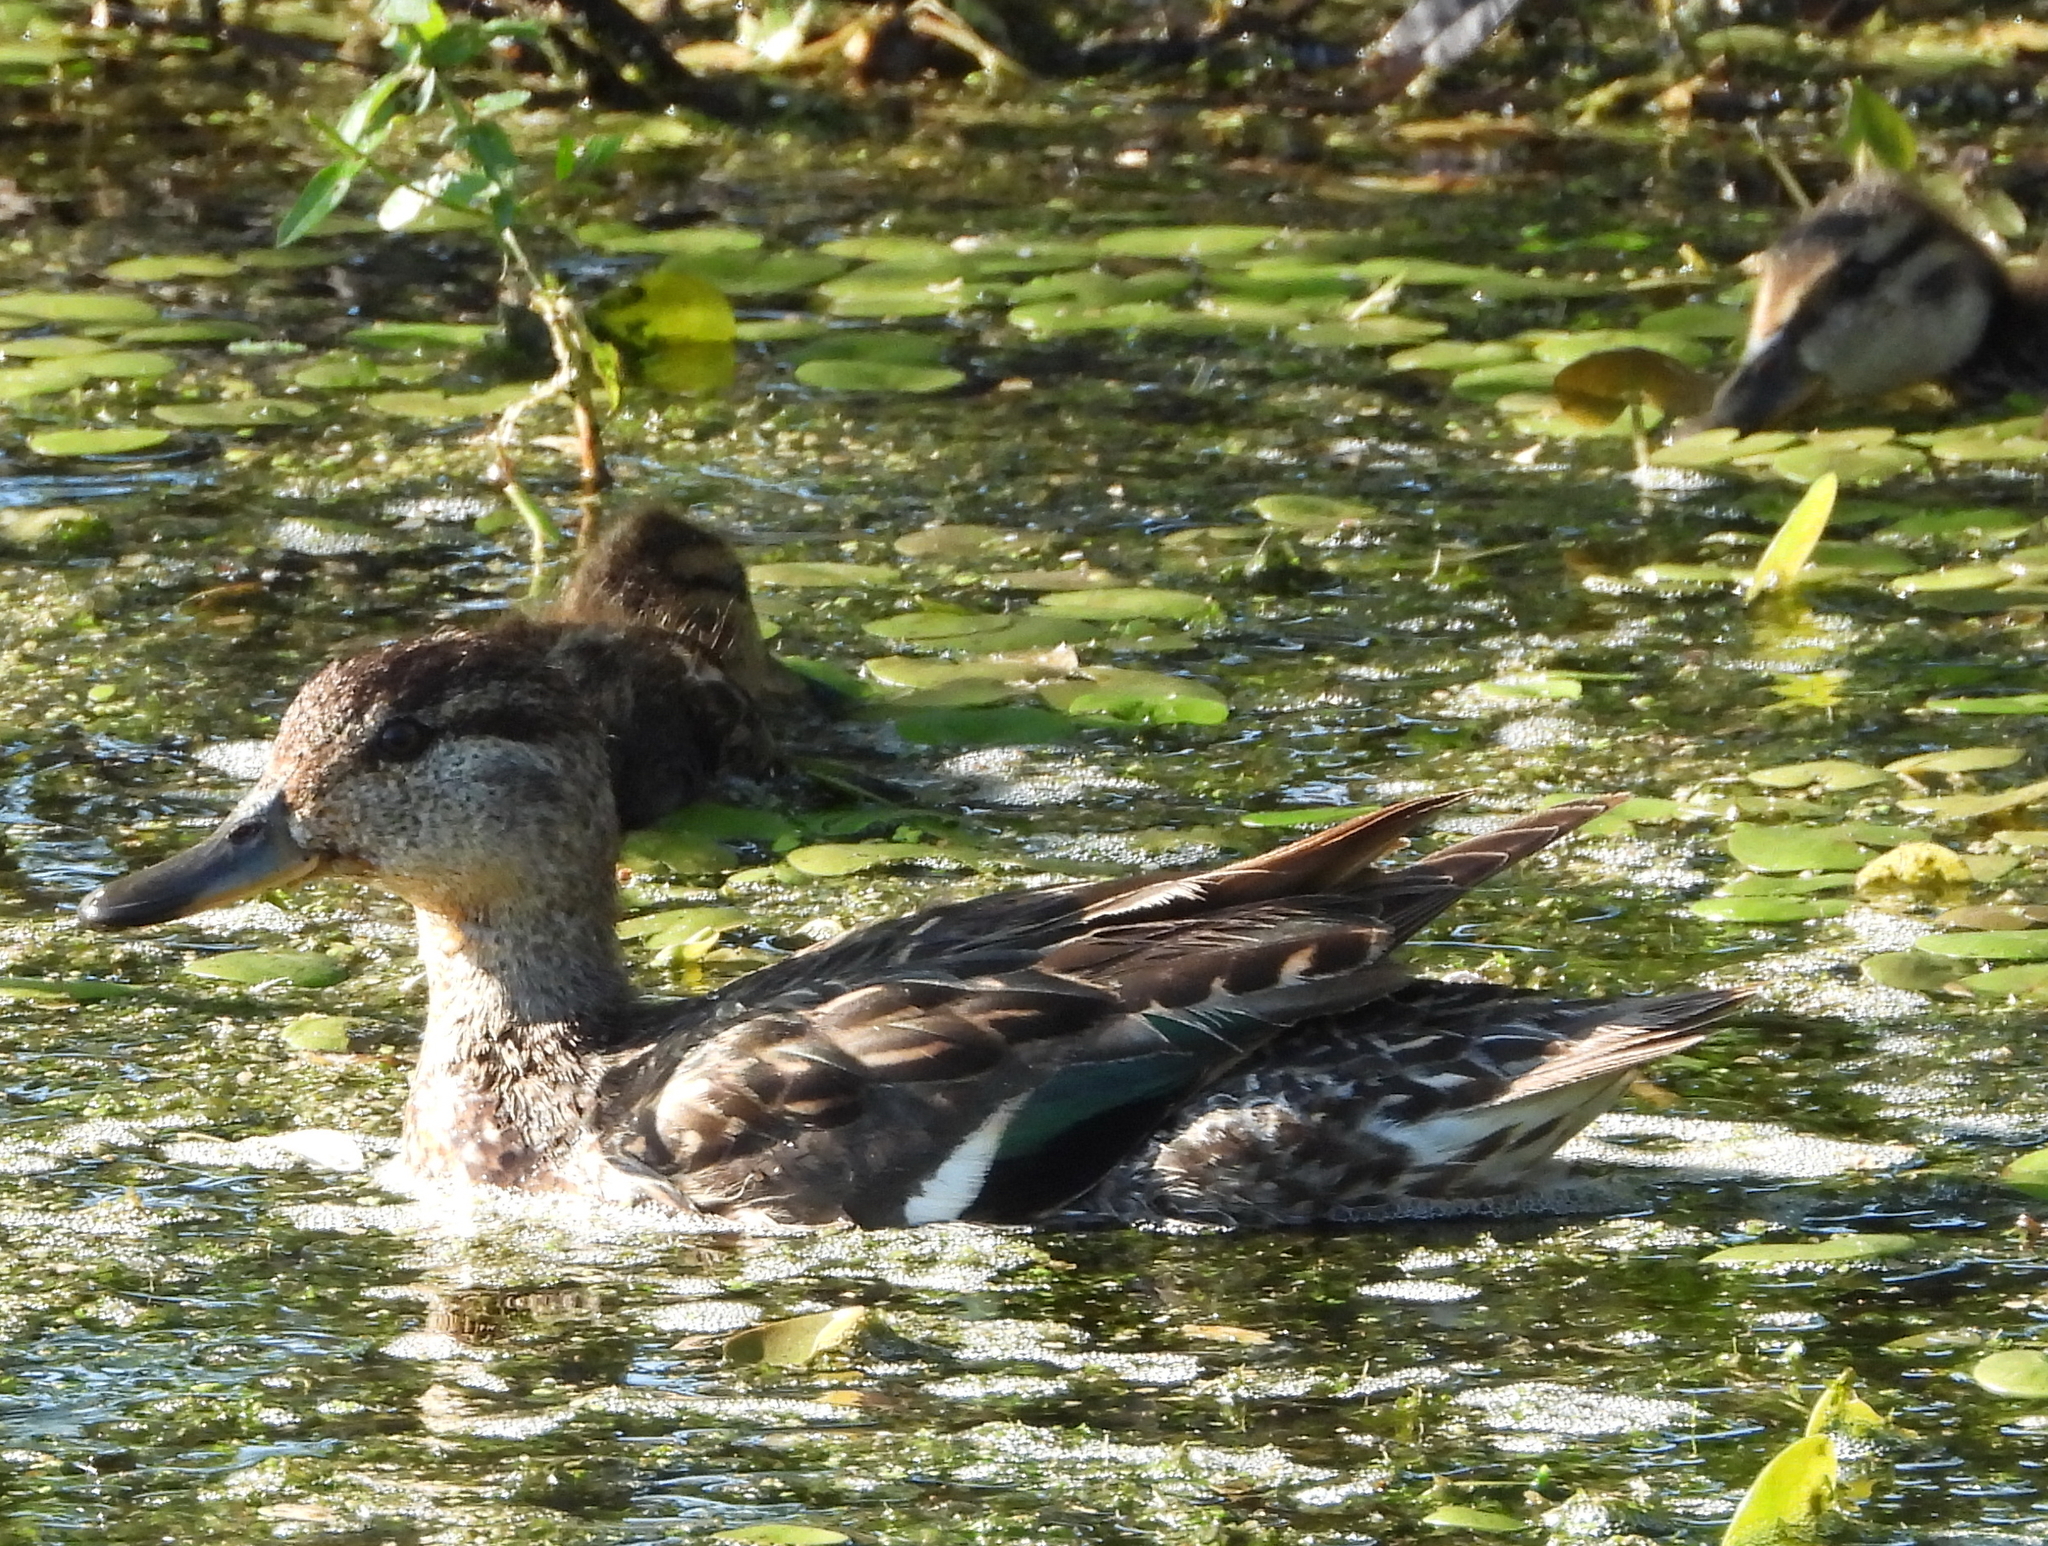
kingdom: Animalia
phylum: Chordata
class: Aves
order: Anseriformes
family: Anatidae
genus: Anas
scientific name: Anas crecca
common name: Eurasian teal
